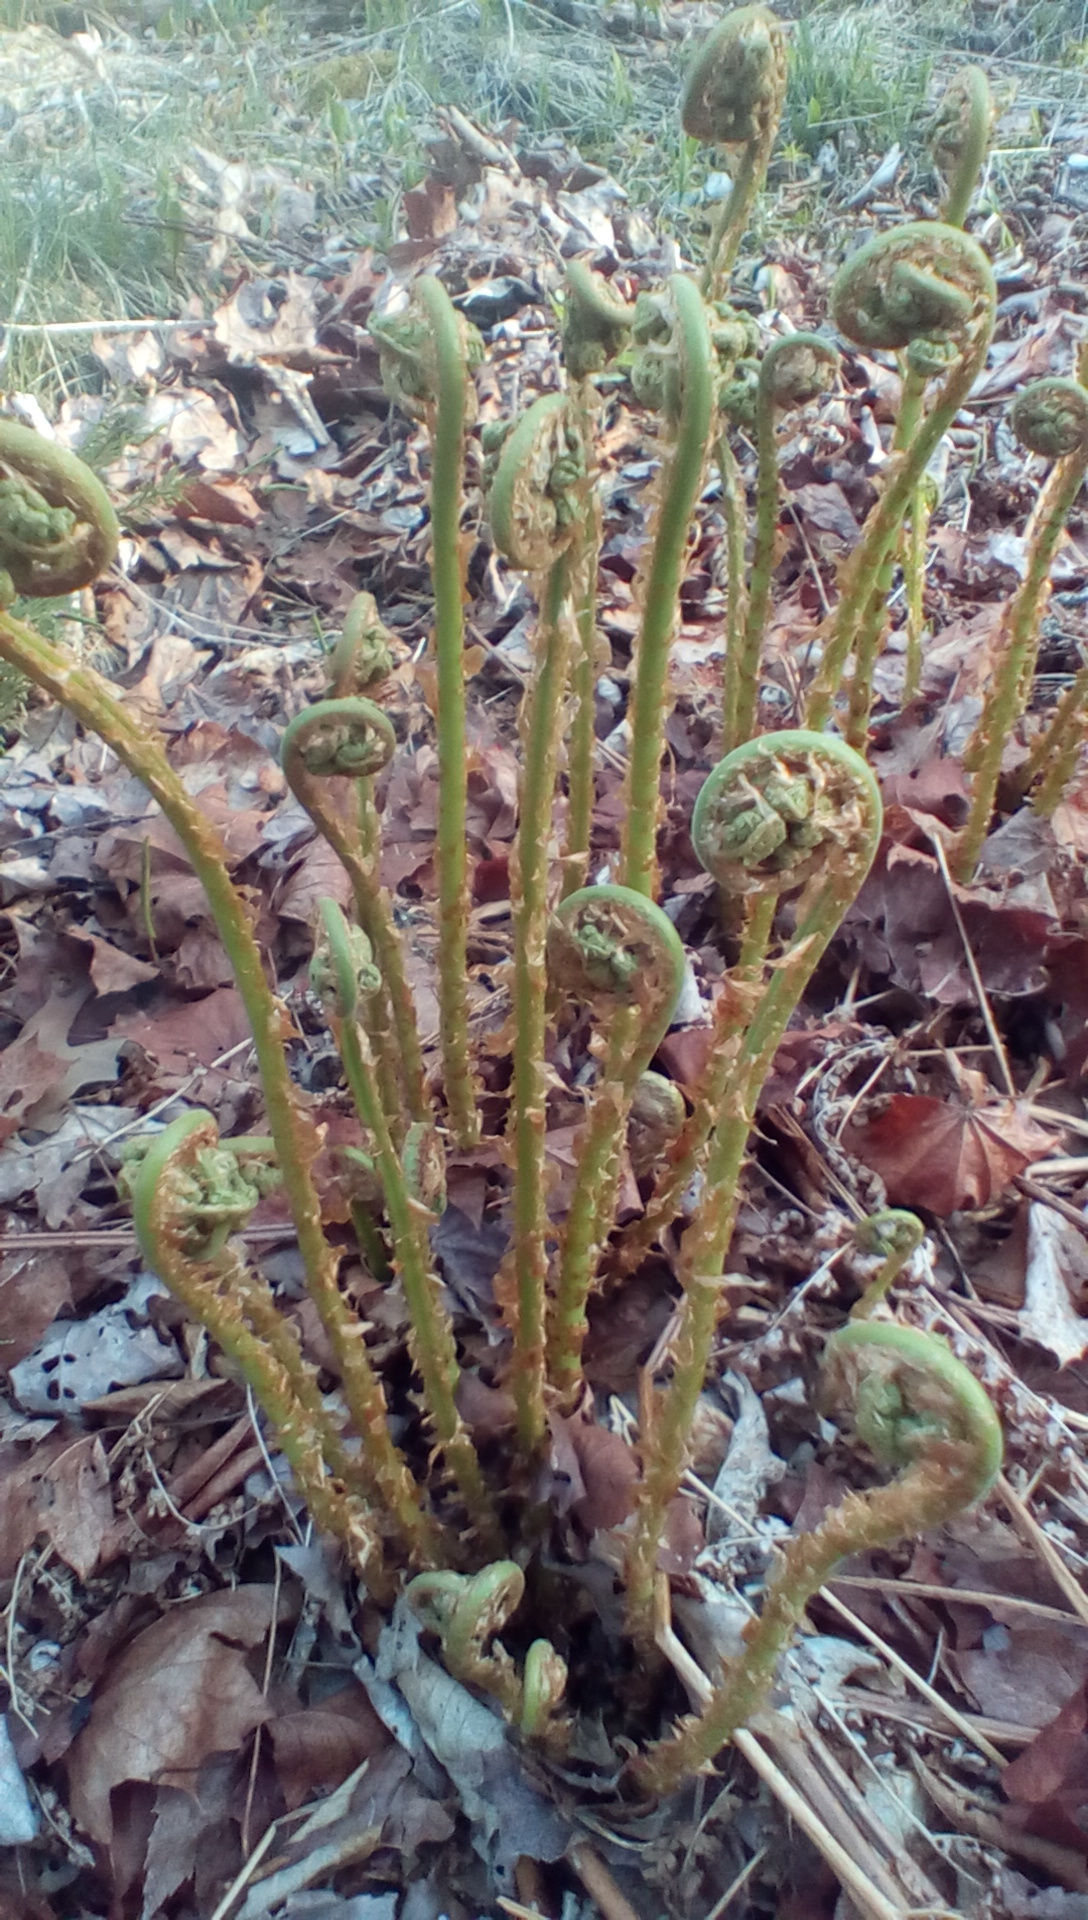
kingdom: Plantae
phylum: Tracheophyta
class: Polypodiopsida
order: Polypodiales
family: Dryopteridaceae
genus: Dryopteris
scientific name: Dryopteris marginalis
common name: Marginal wood fern
